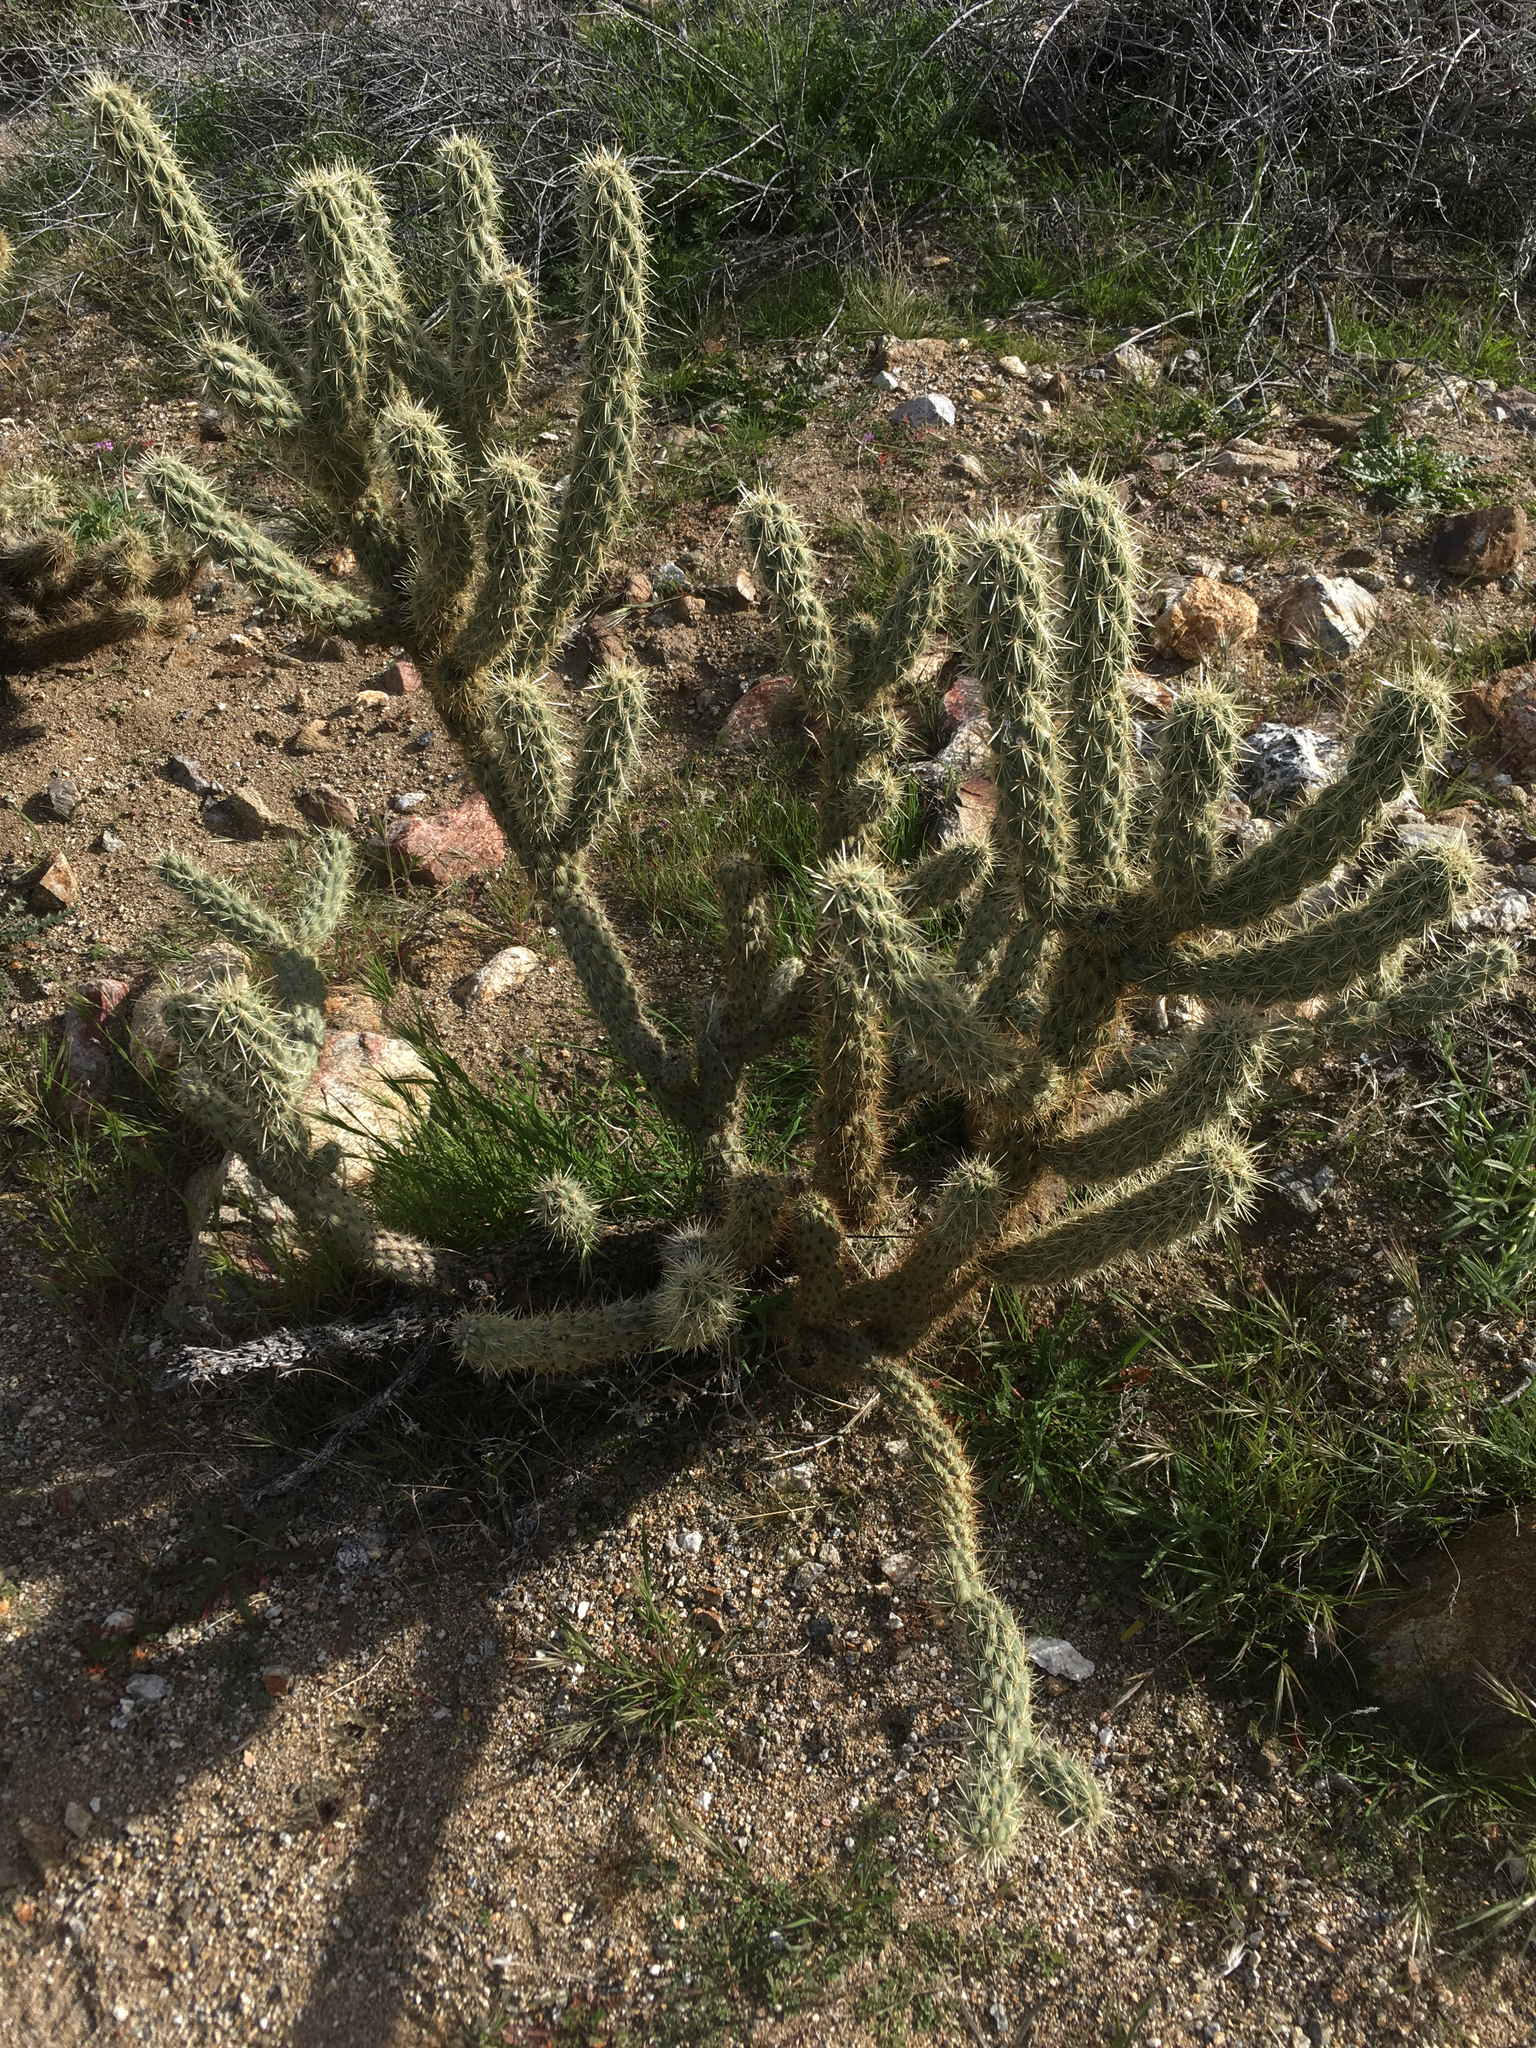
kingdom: Plantae
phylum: Tracheophyta
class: Magnoliopsida
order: Caryophyllales
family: Cactaceae
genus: Cylindropuntia
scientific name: Cylindropuntia ganderi
